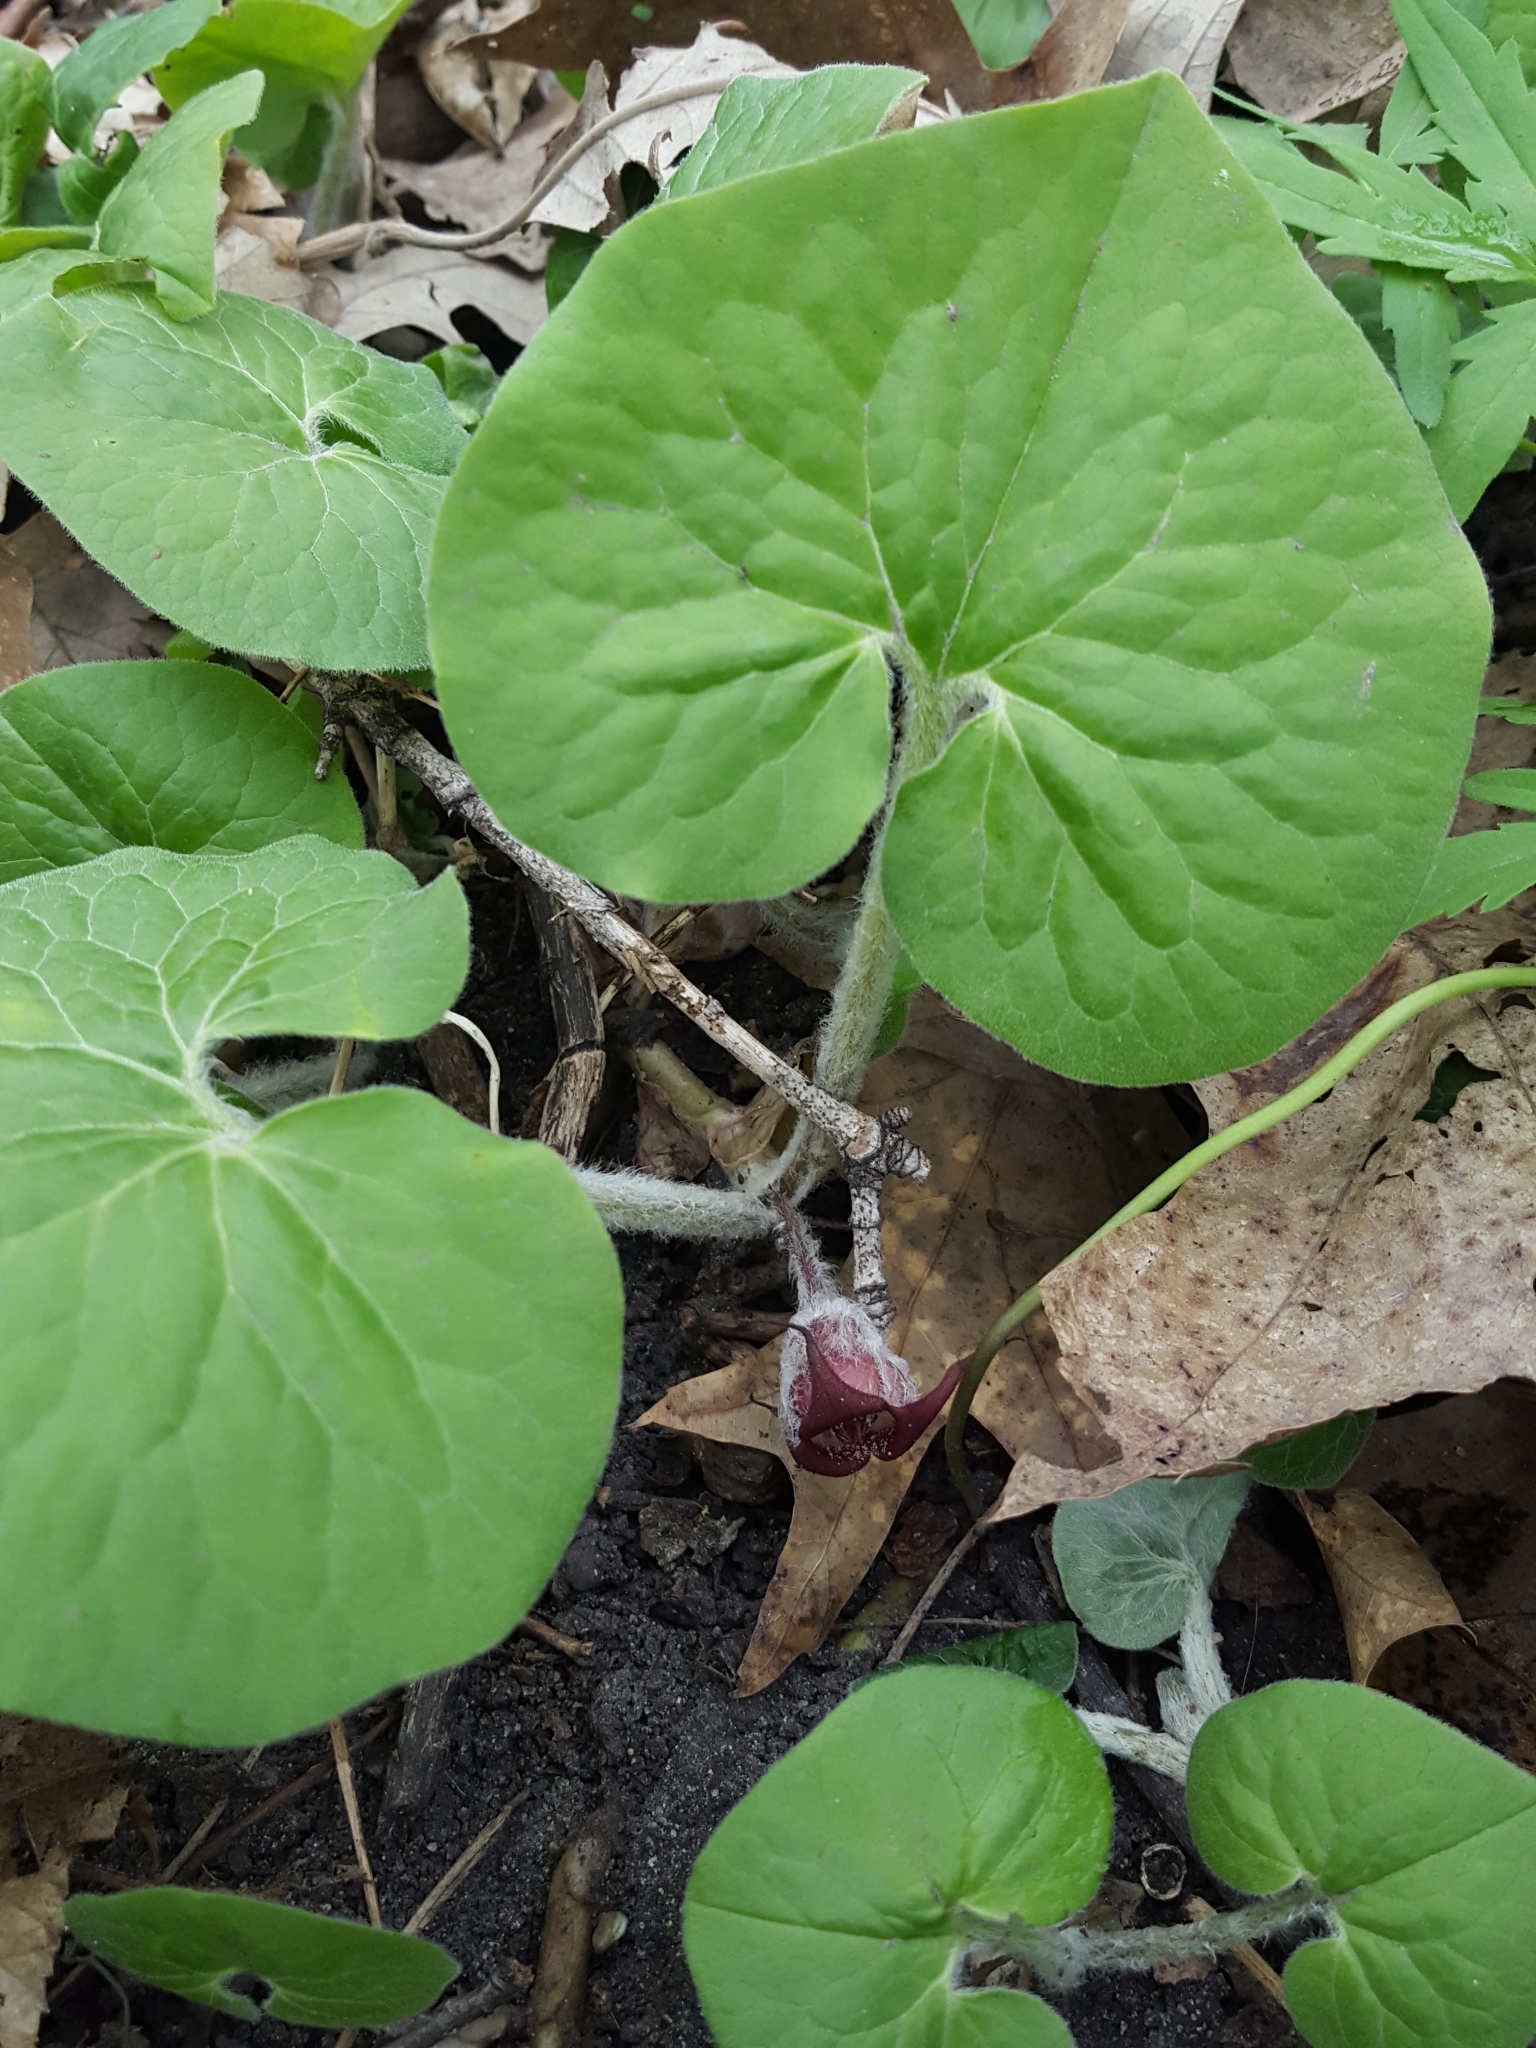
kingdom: Plantae
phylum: Tracheophyta
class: Magnoliopsida
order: Piperales
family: Aristolochiaceae
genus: Asarum
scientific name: Asarum canadense
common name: Wild ginger
